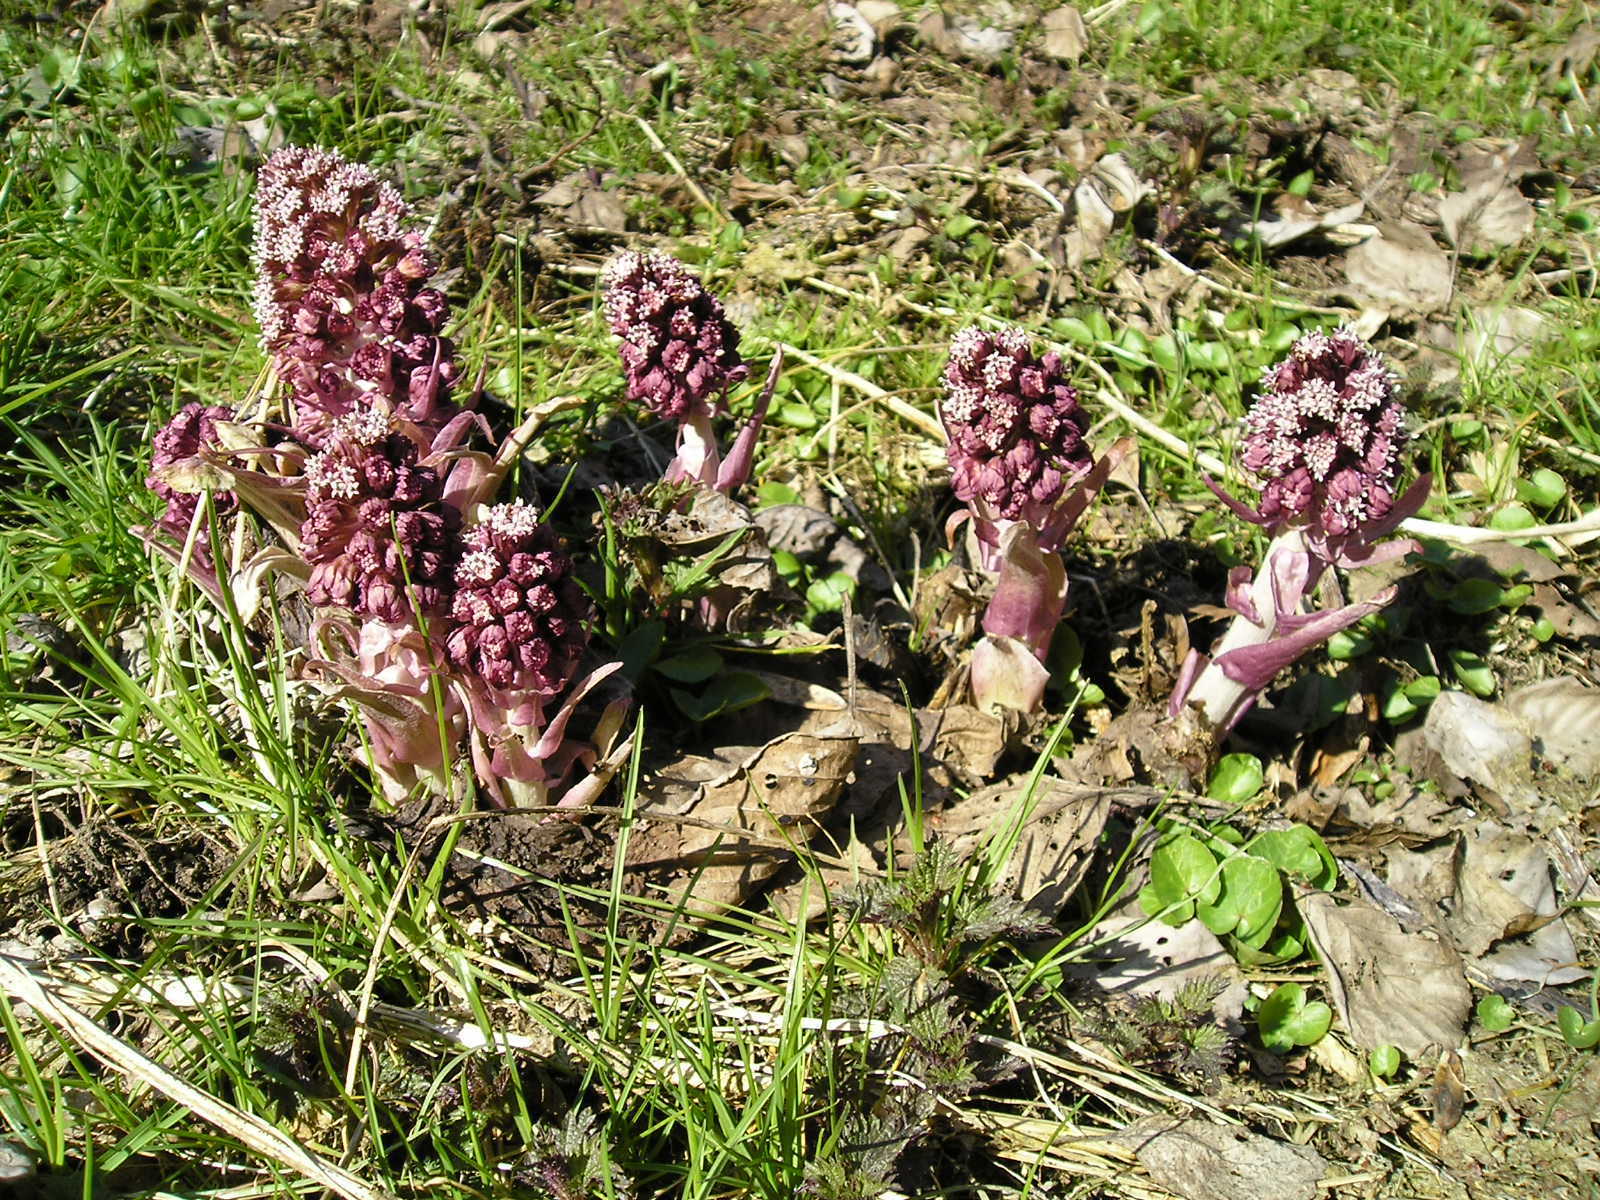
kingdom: Plantae
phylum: Tracheophyta
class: Magnoliopsida
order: Asterales
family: Asteraceae
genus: Petasites
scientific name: Petasites hybridus
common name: Butterbur
